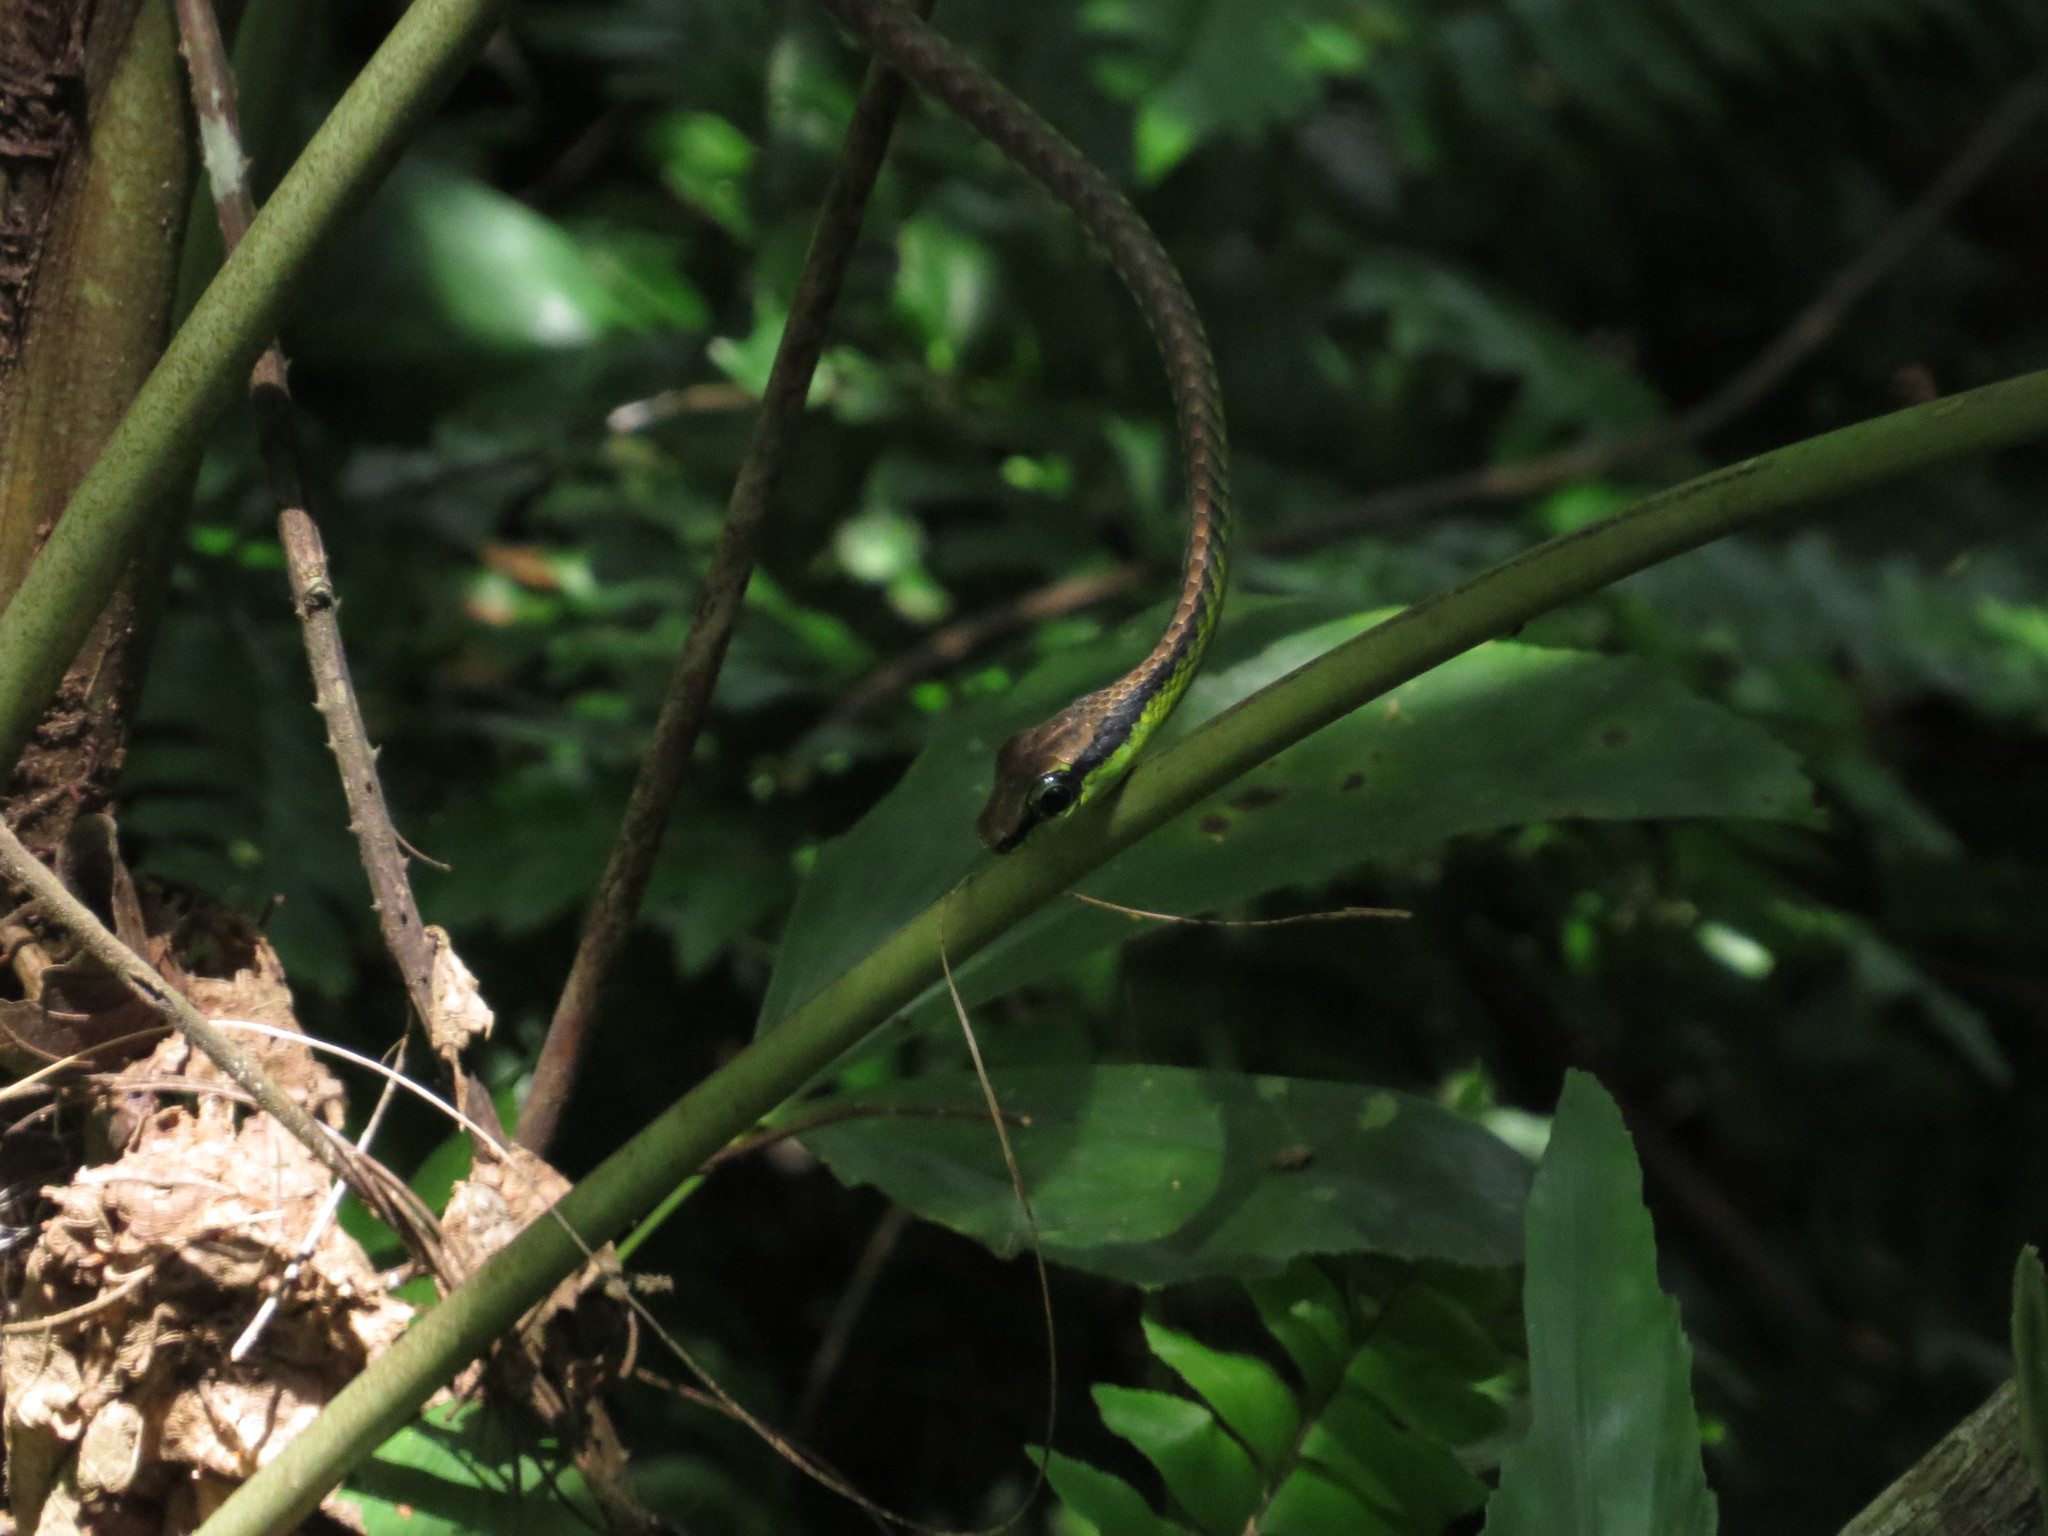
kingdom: Animalia
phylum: Chordata
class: Squamata
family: Colubridae
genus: Dendrelaphis
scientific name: Dendrelaphis formosus
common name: Elegant bronzeback
